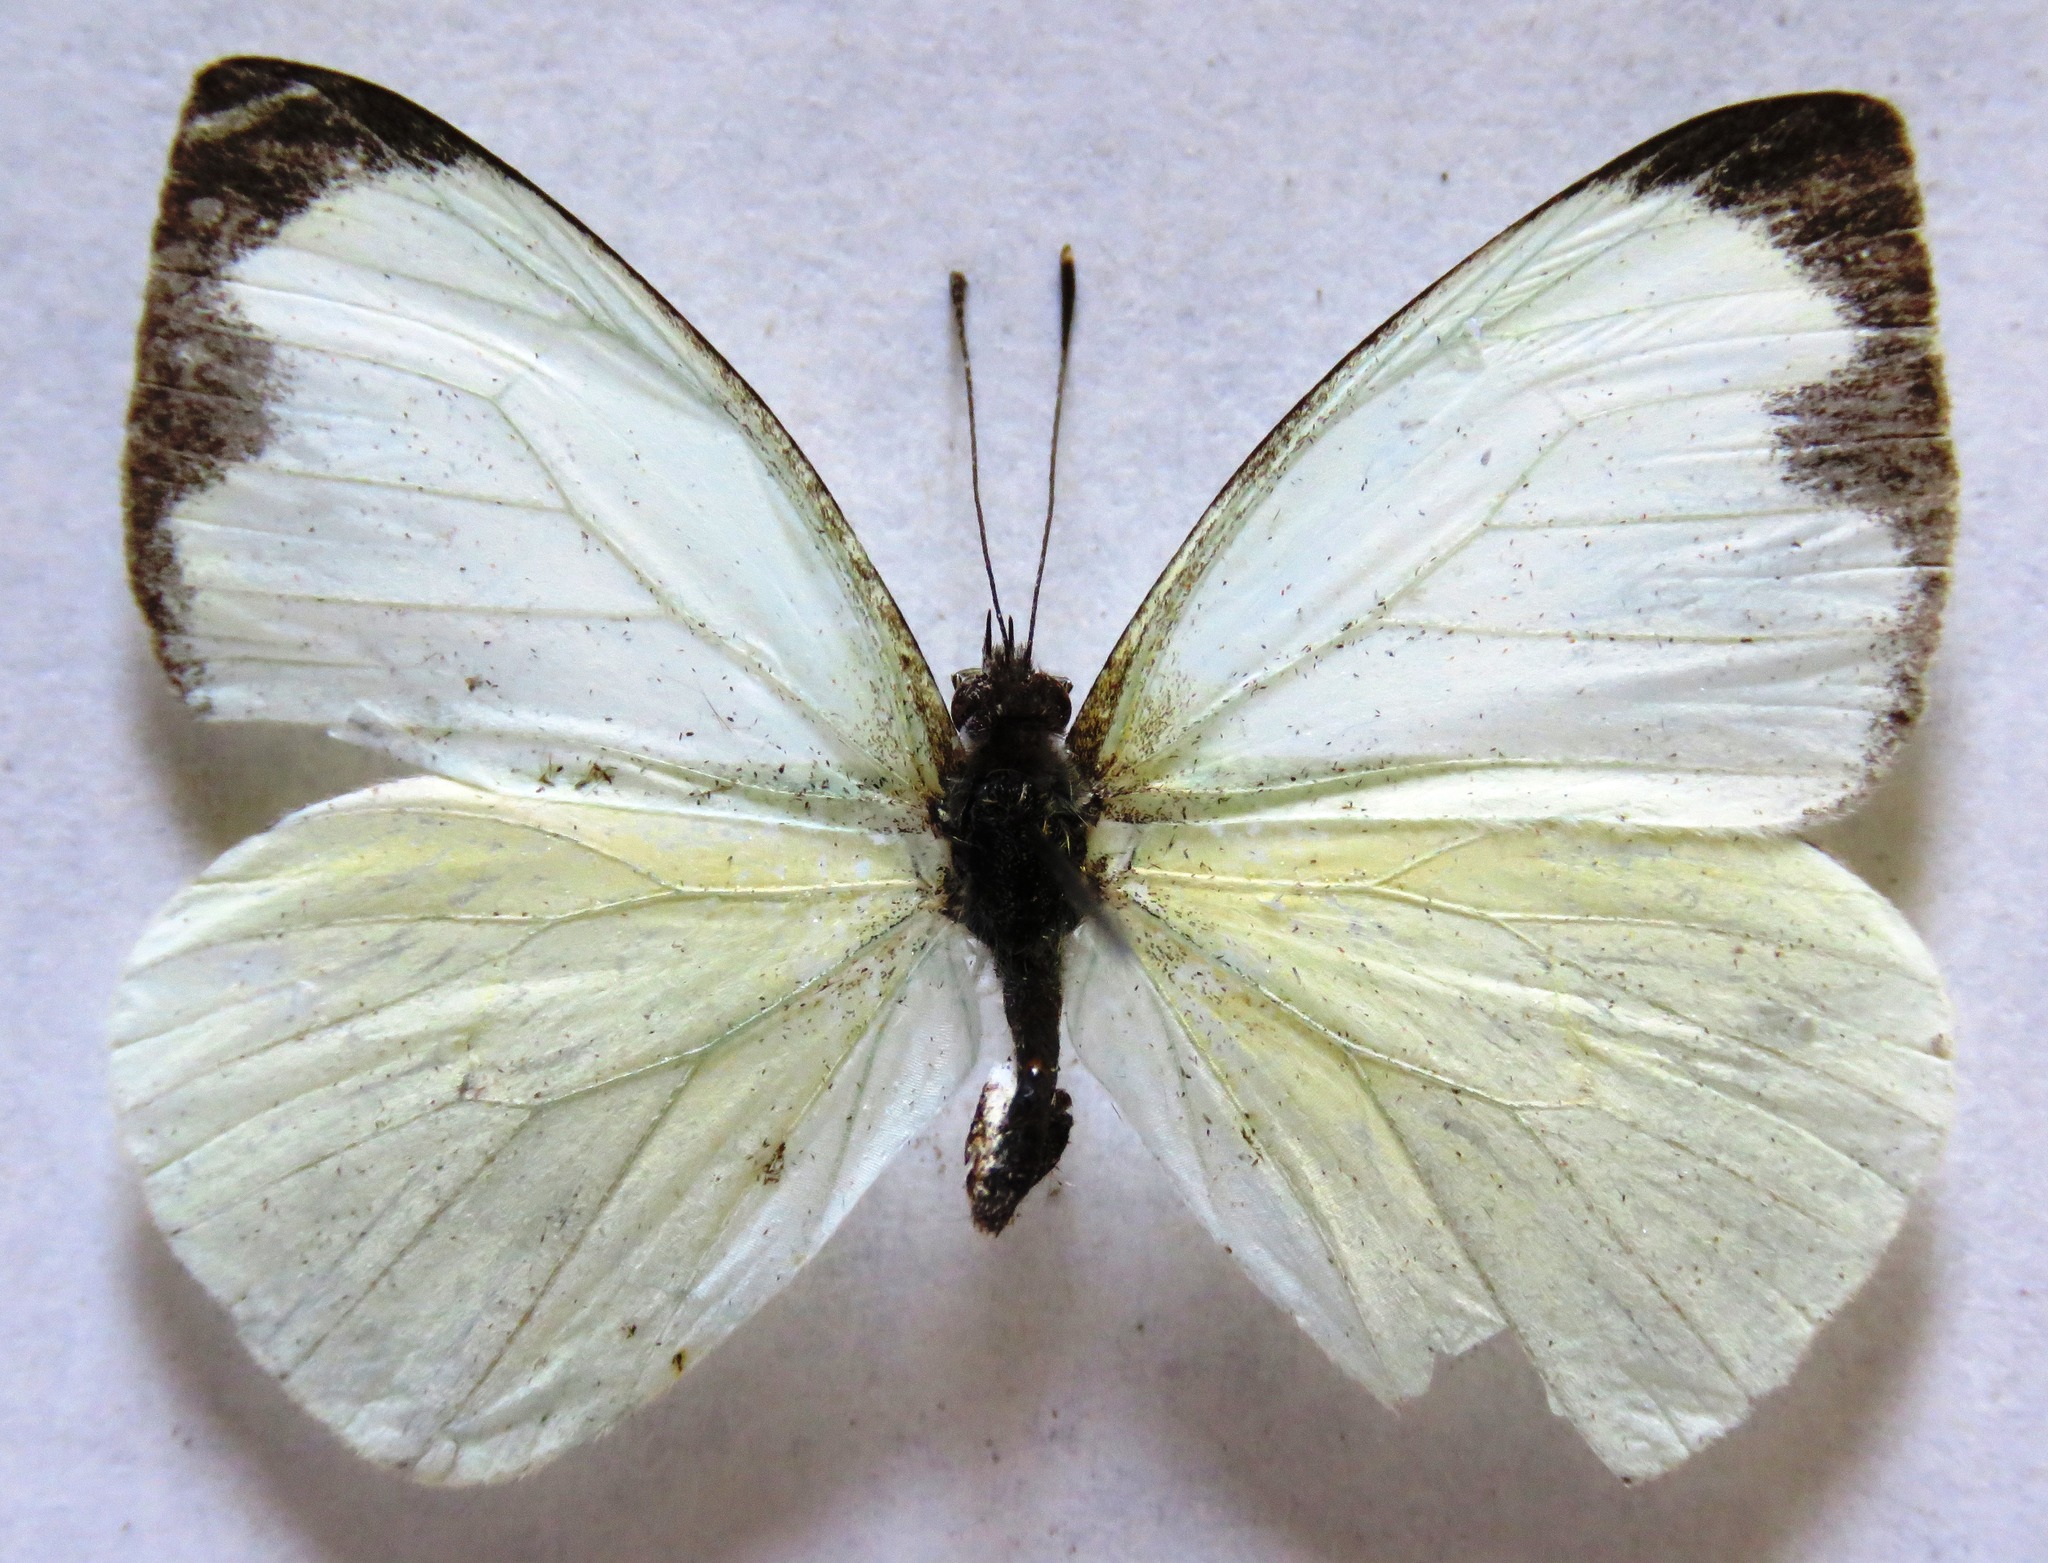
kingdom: Animalia
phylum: Arthropoda
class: Insecta
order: Lepidoptera
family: Pieridae
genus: Leptophobia
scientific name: Leptophobia aripa
